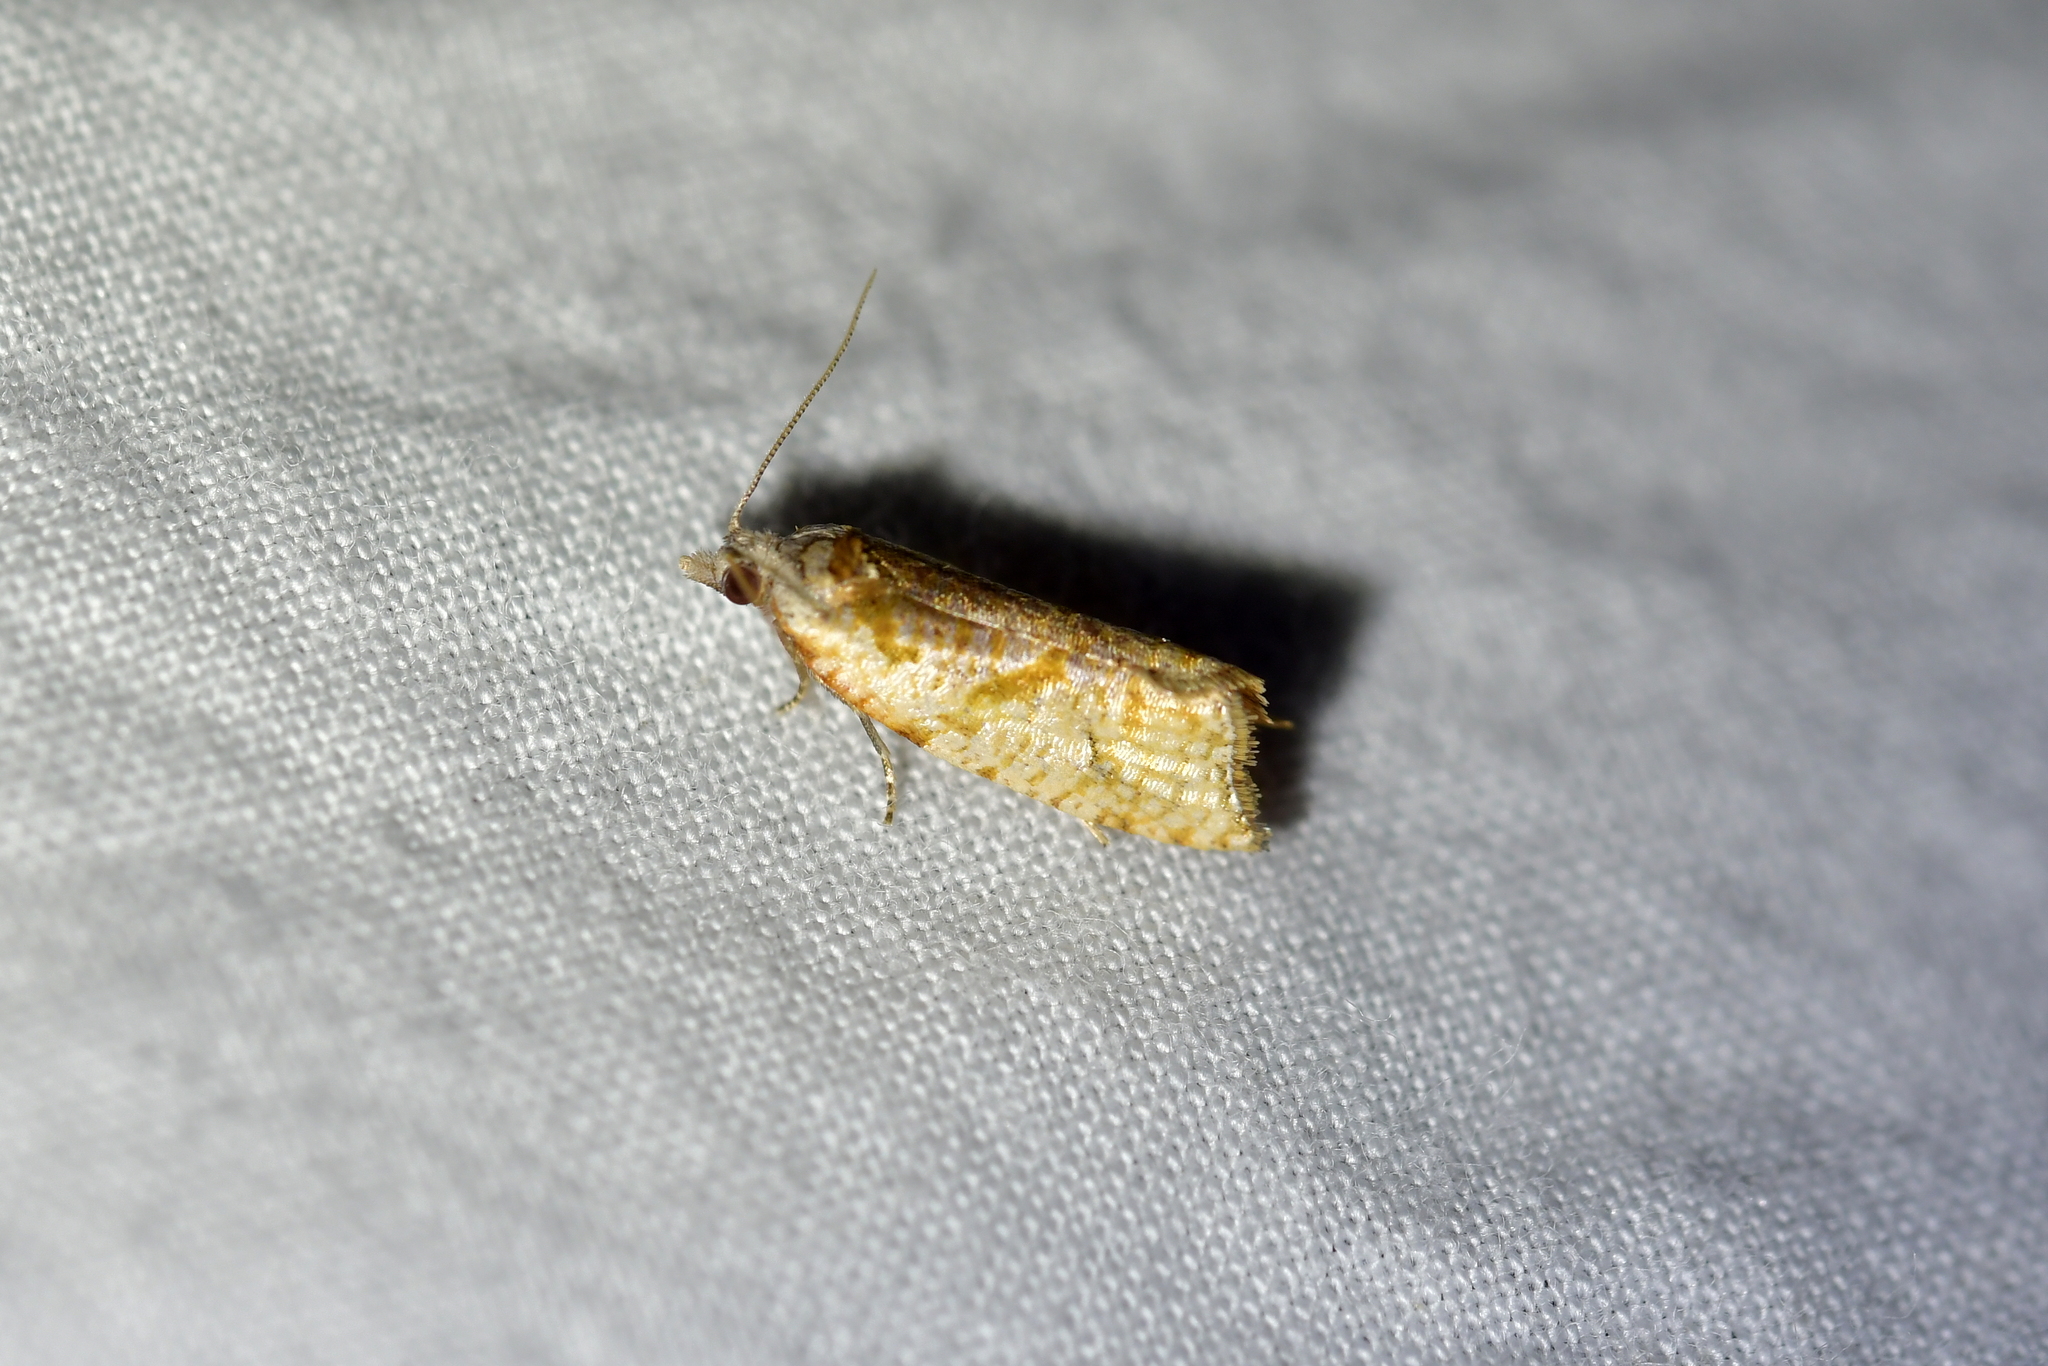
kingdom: Animalia
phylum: Arthropoda
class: Insecta
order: Lepidoptera
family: Tortricidae
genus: Pyrgotis
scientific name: Pyrgotis plagiatana
